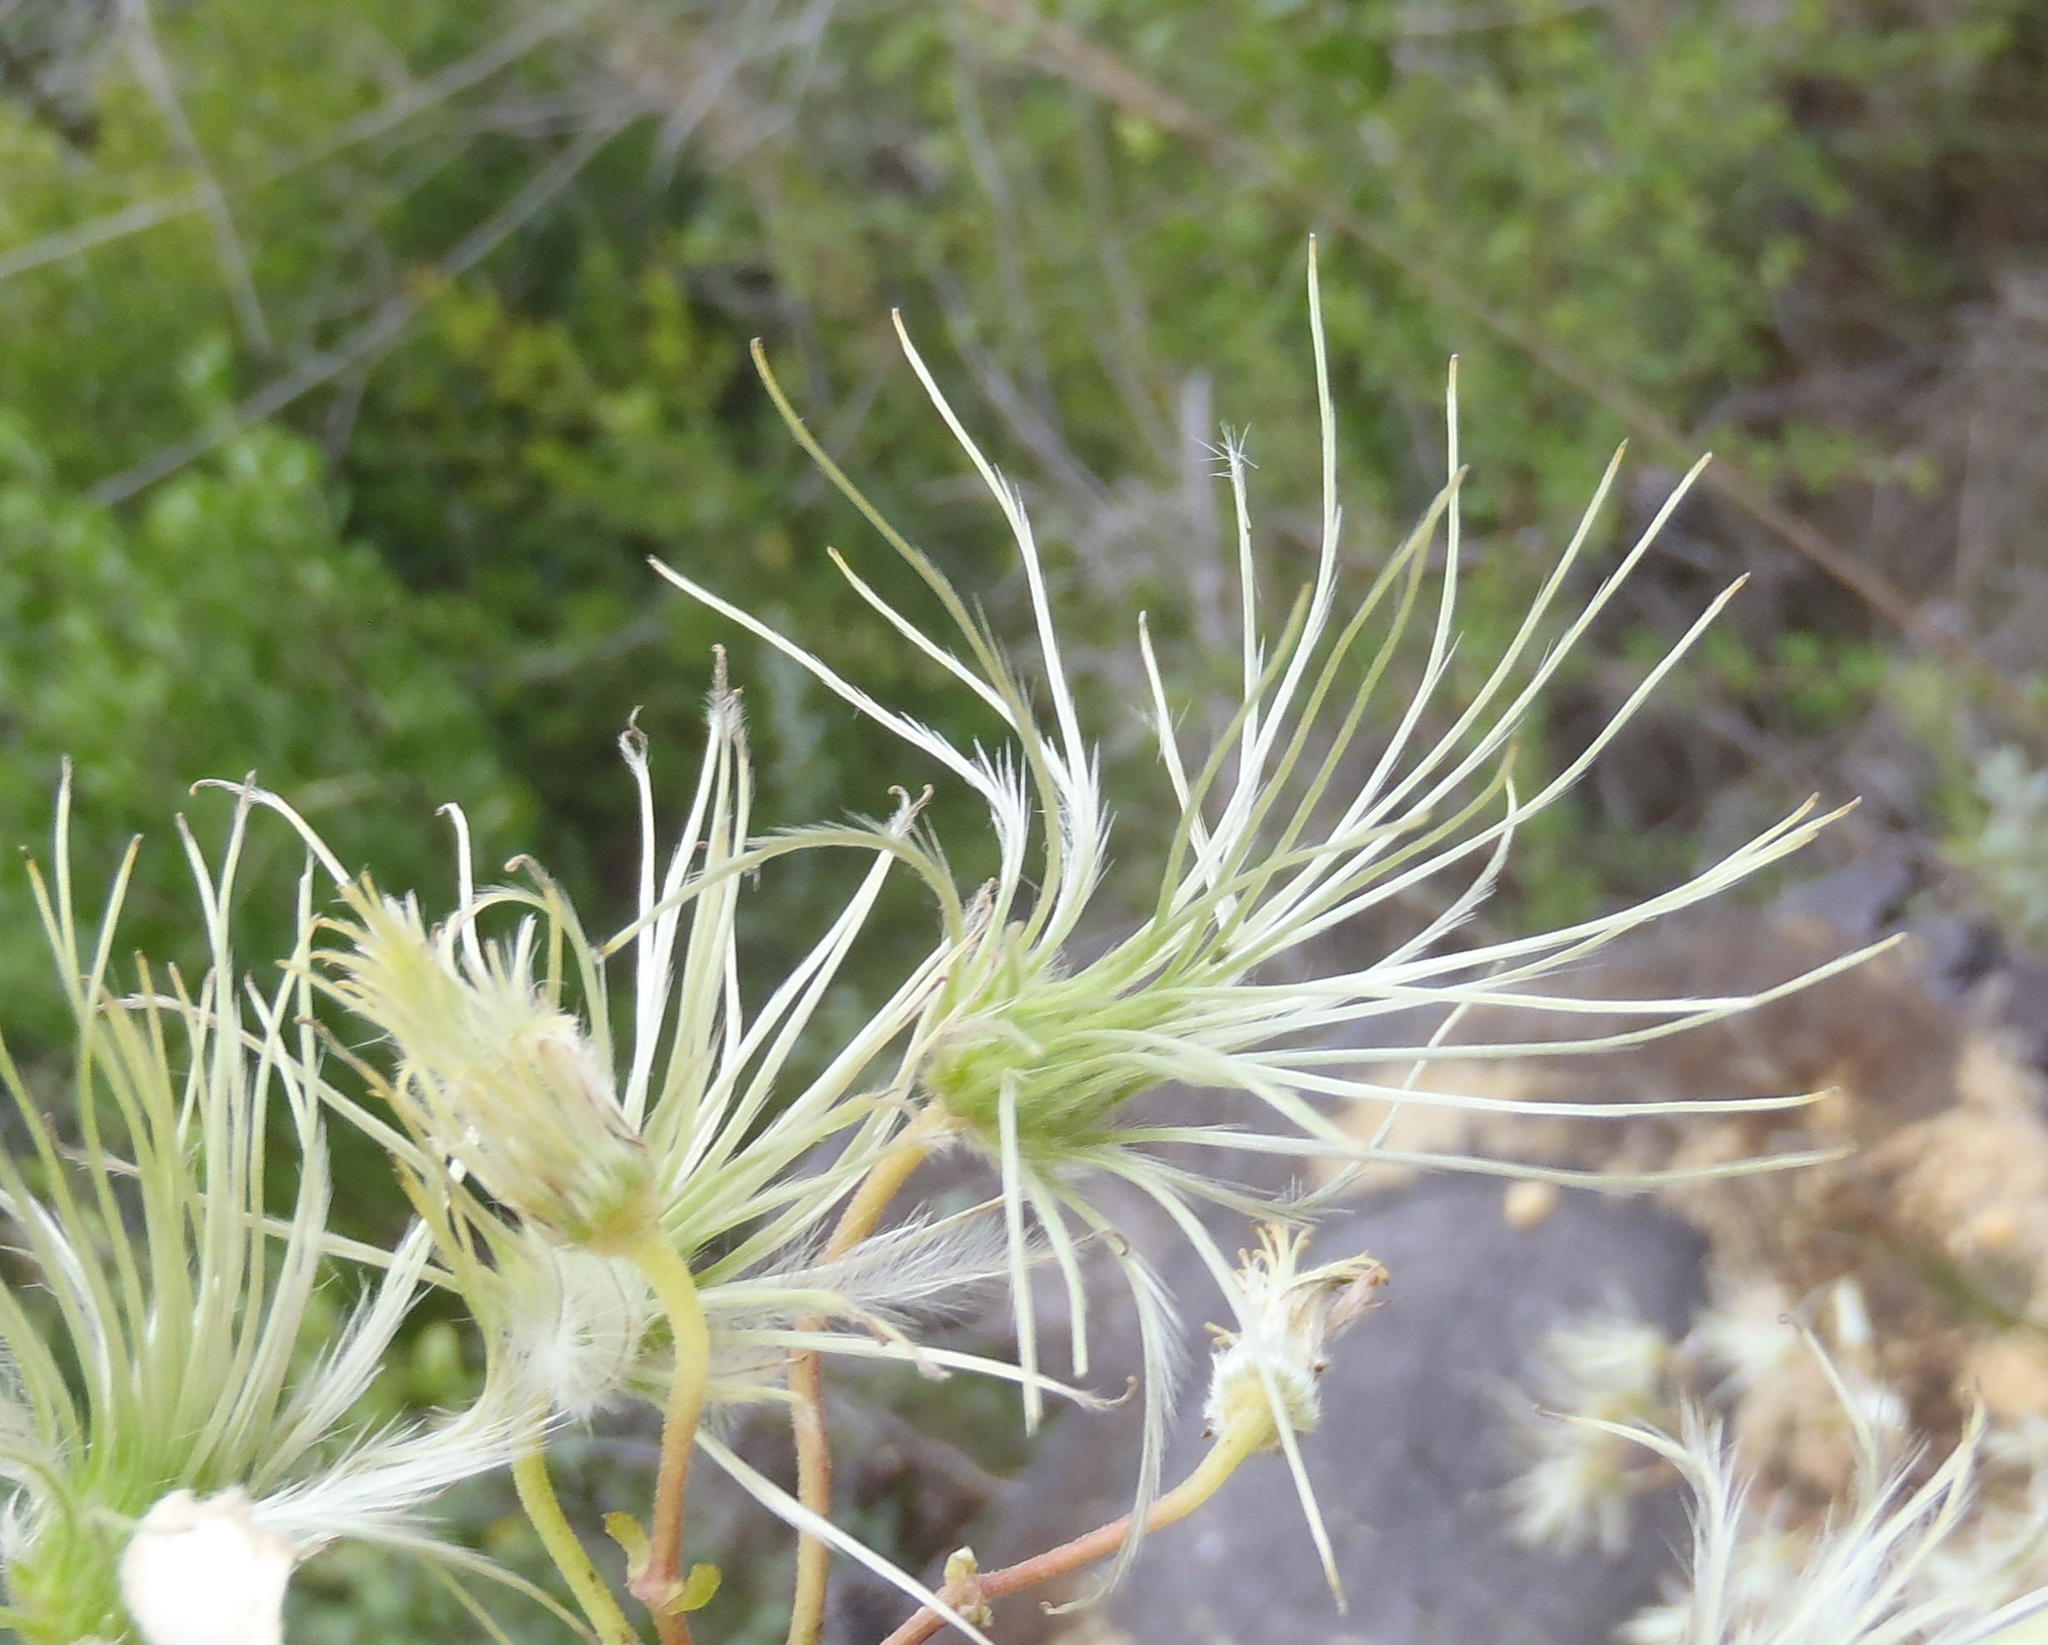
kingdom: Plantae
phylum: Tracheophyta
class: Magnoliopsida
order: Ranunculales
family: Ranunculaceae
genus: Clematis
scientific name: Clematis brachiata
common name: Traveler's-joy
